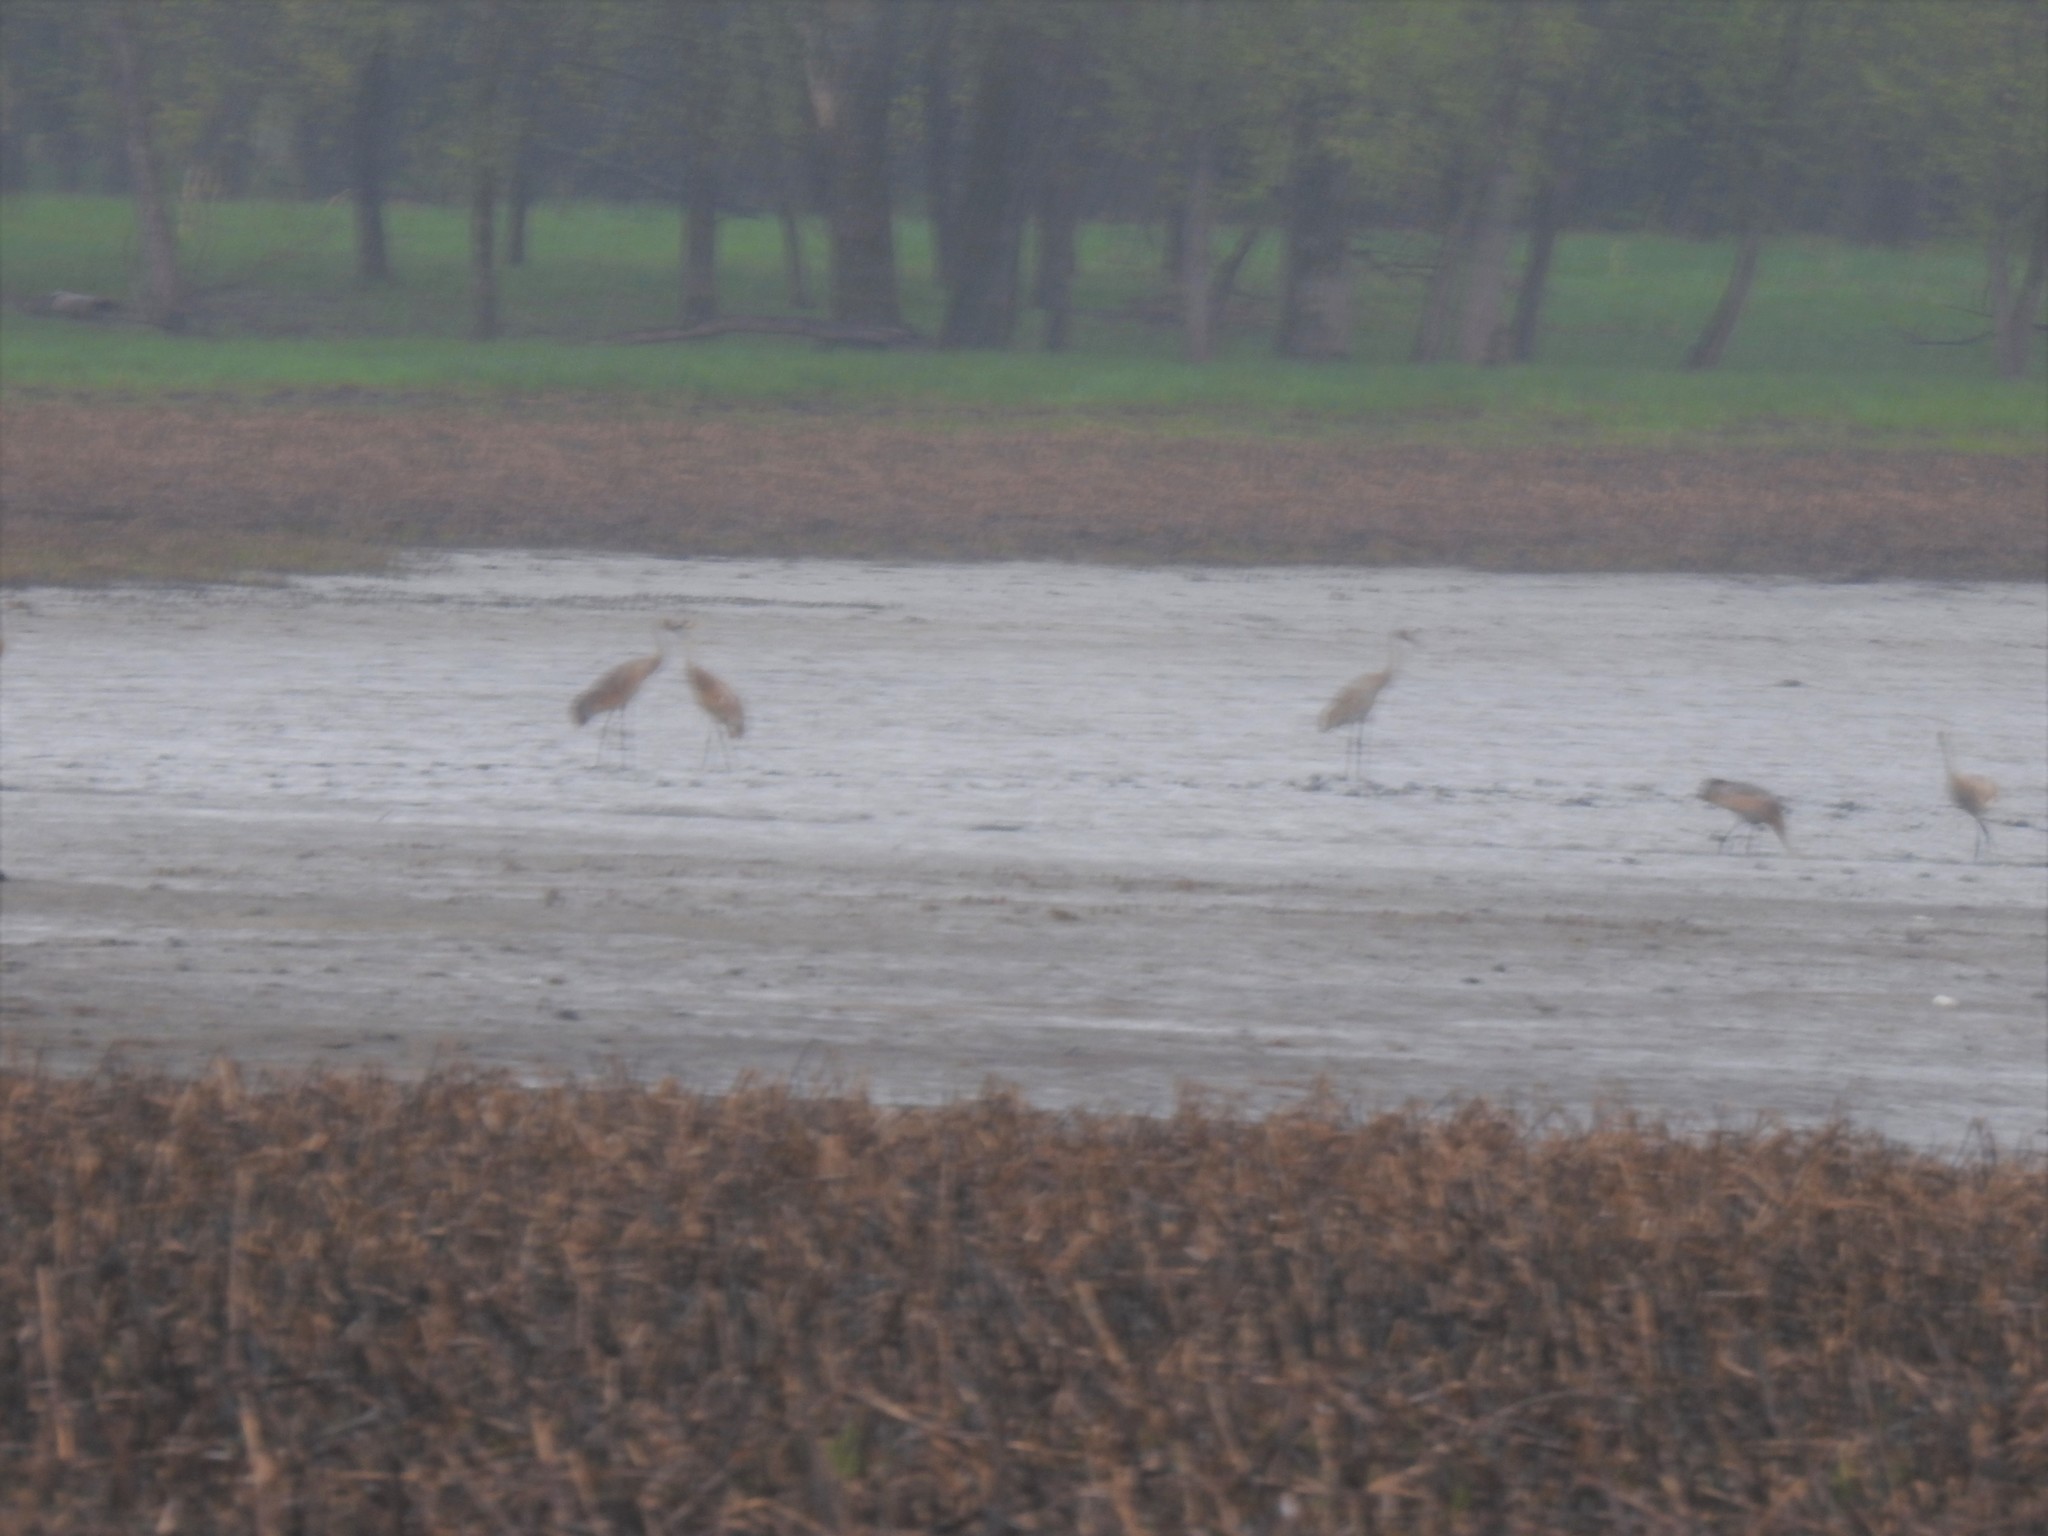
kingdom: Animalia
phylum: Chordata
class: Aves
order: Gruiformes
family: Gruidae
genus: Grus
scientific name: Grus canadensis
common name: Sandhill crane
